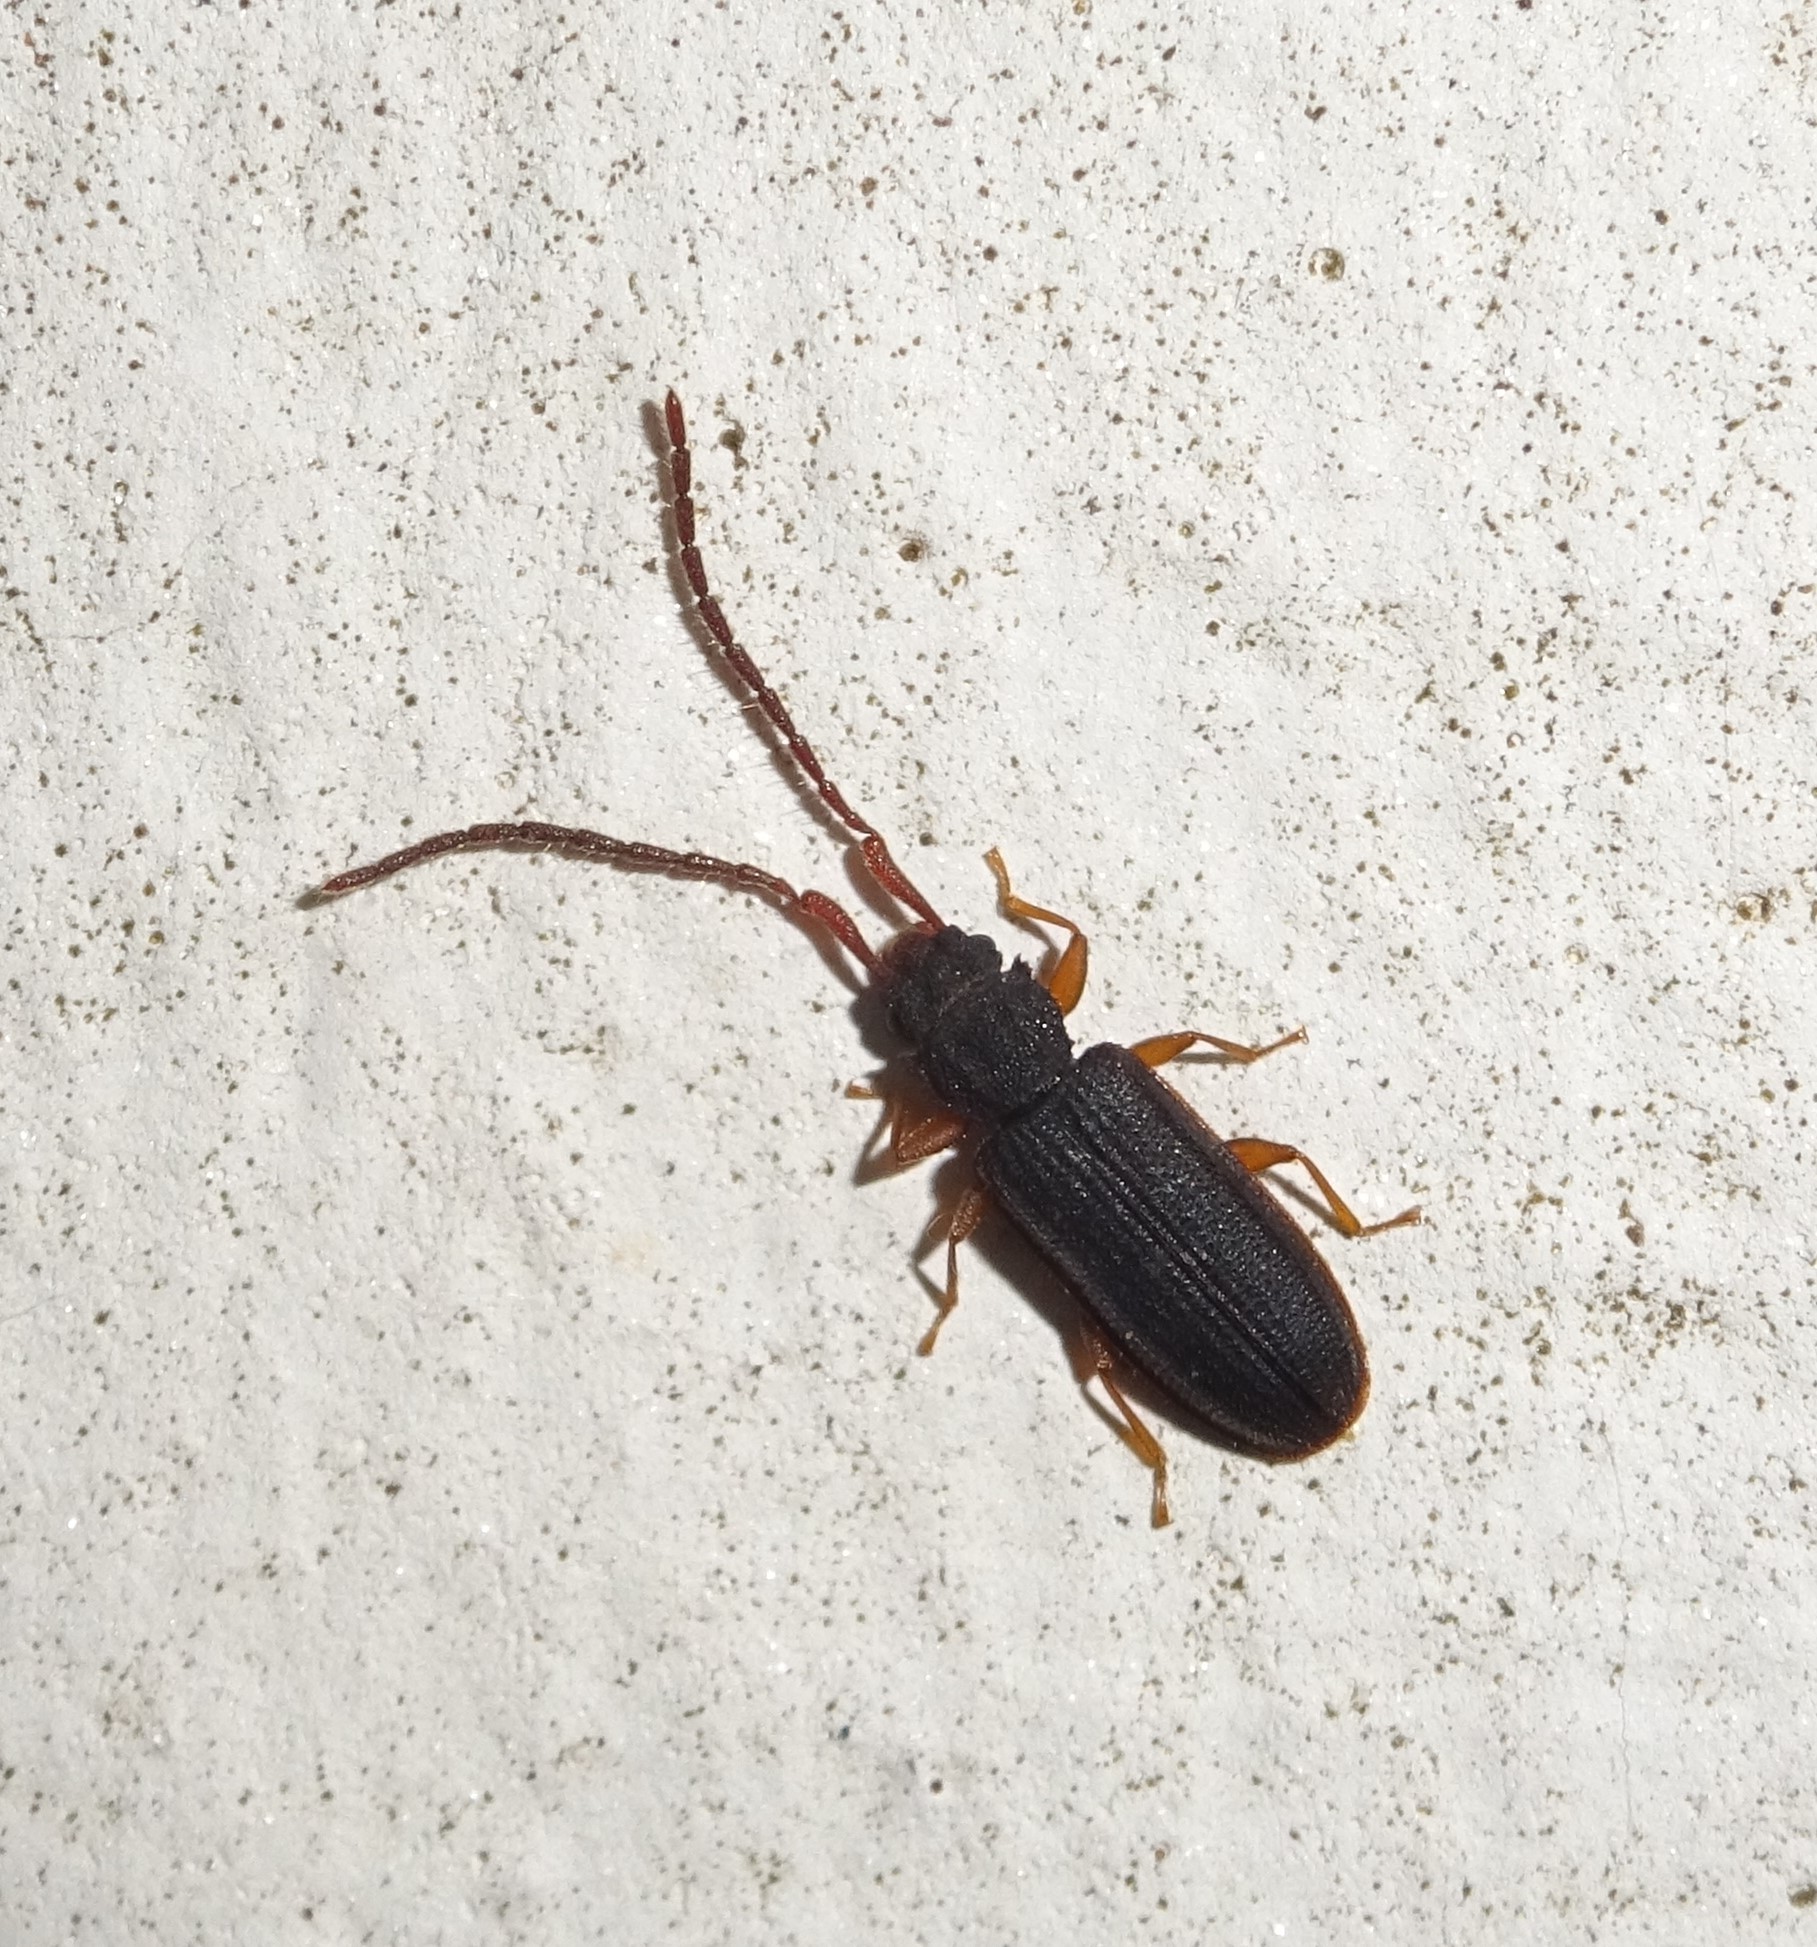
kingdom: Animalia
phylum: Arthropoda
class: Insecta
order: Coleoptera
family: Silvanidae
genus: Uleiota
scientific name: Uleiota planatus
